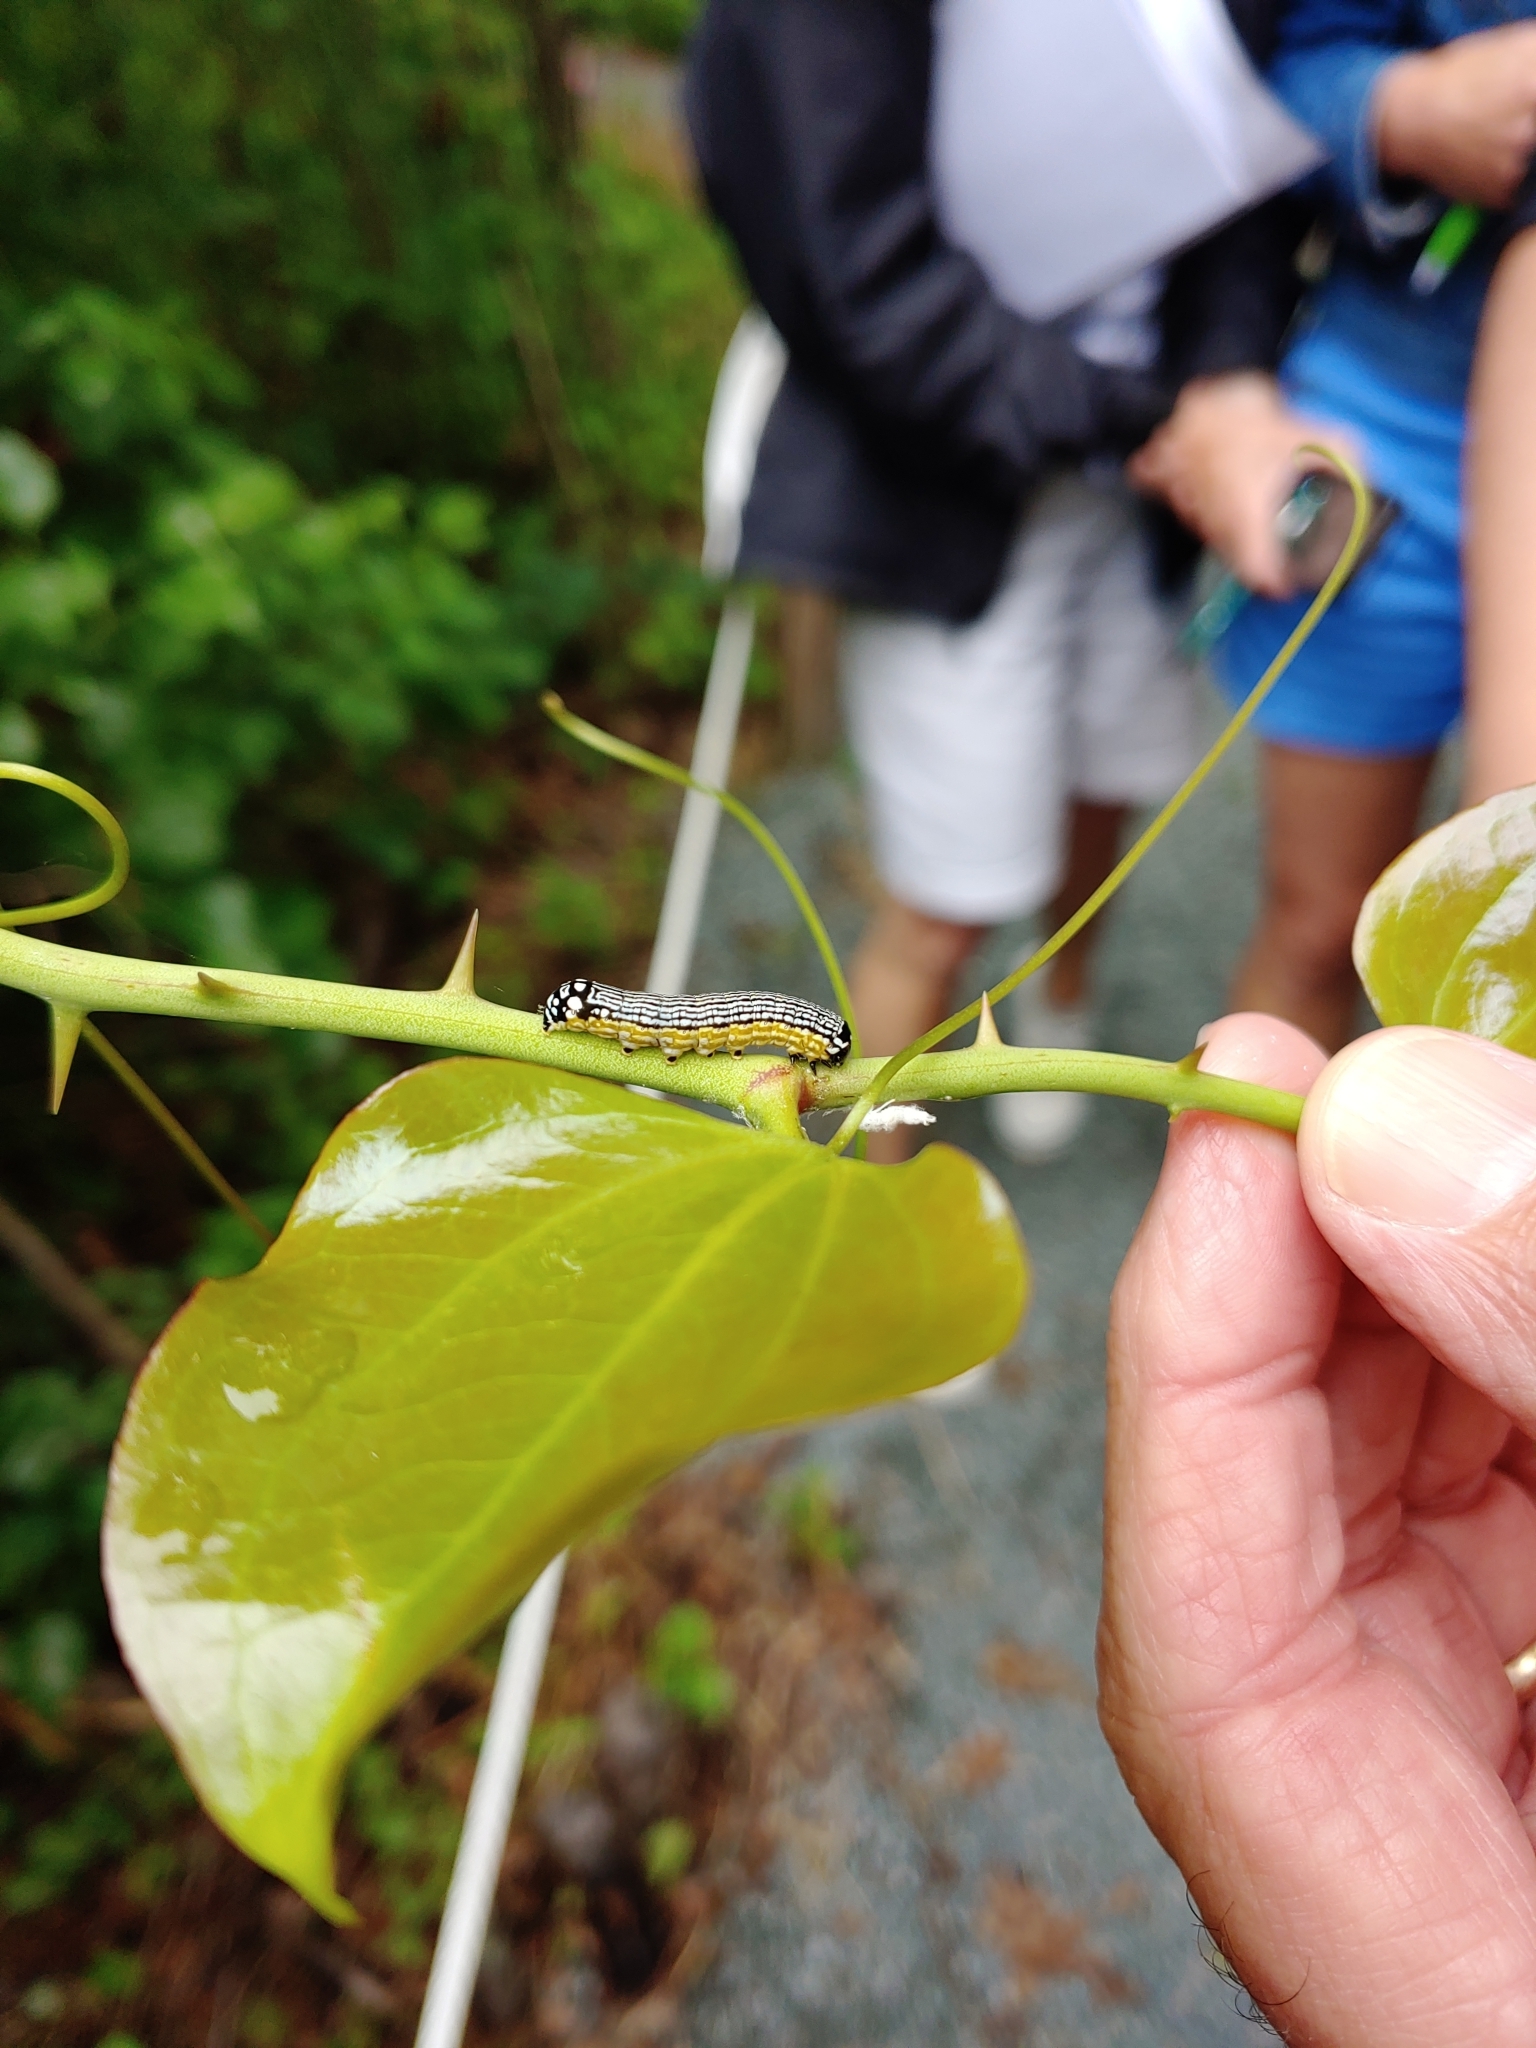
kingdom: Animalia
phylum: Arthropoda
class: Insecta
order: Lepidoptera
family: Noctuidae
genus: Phosphila
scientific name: Phosphila turbulenta
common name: Turbulent phosphila moth
